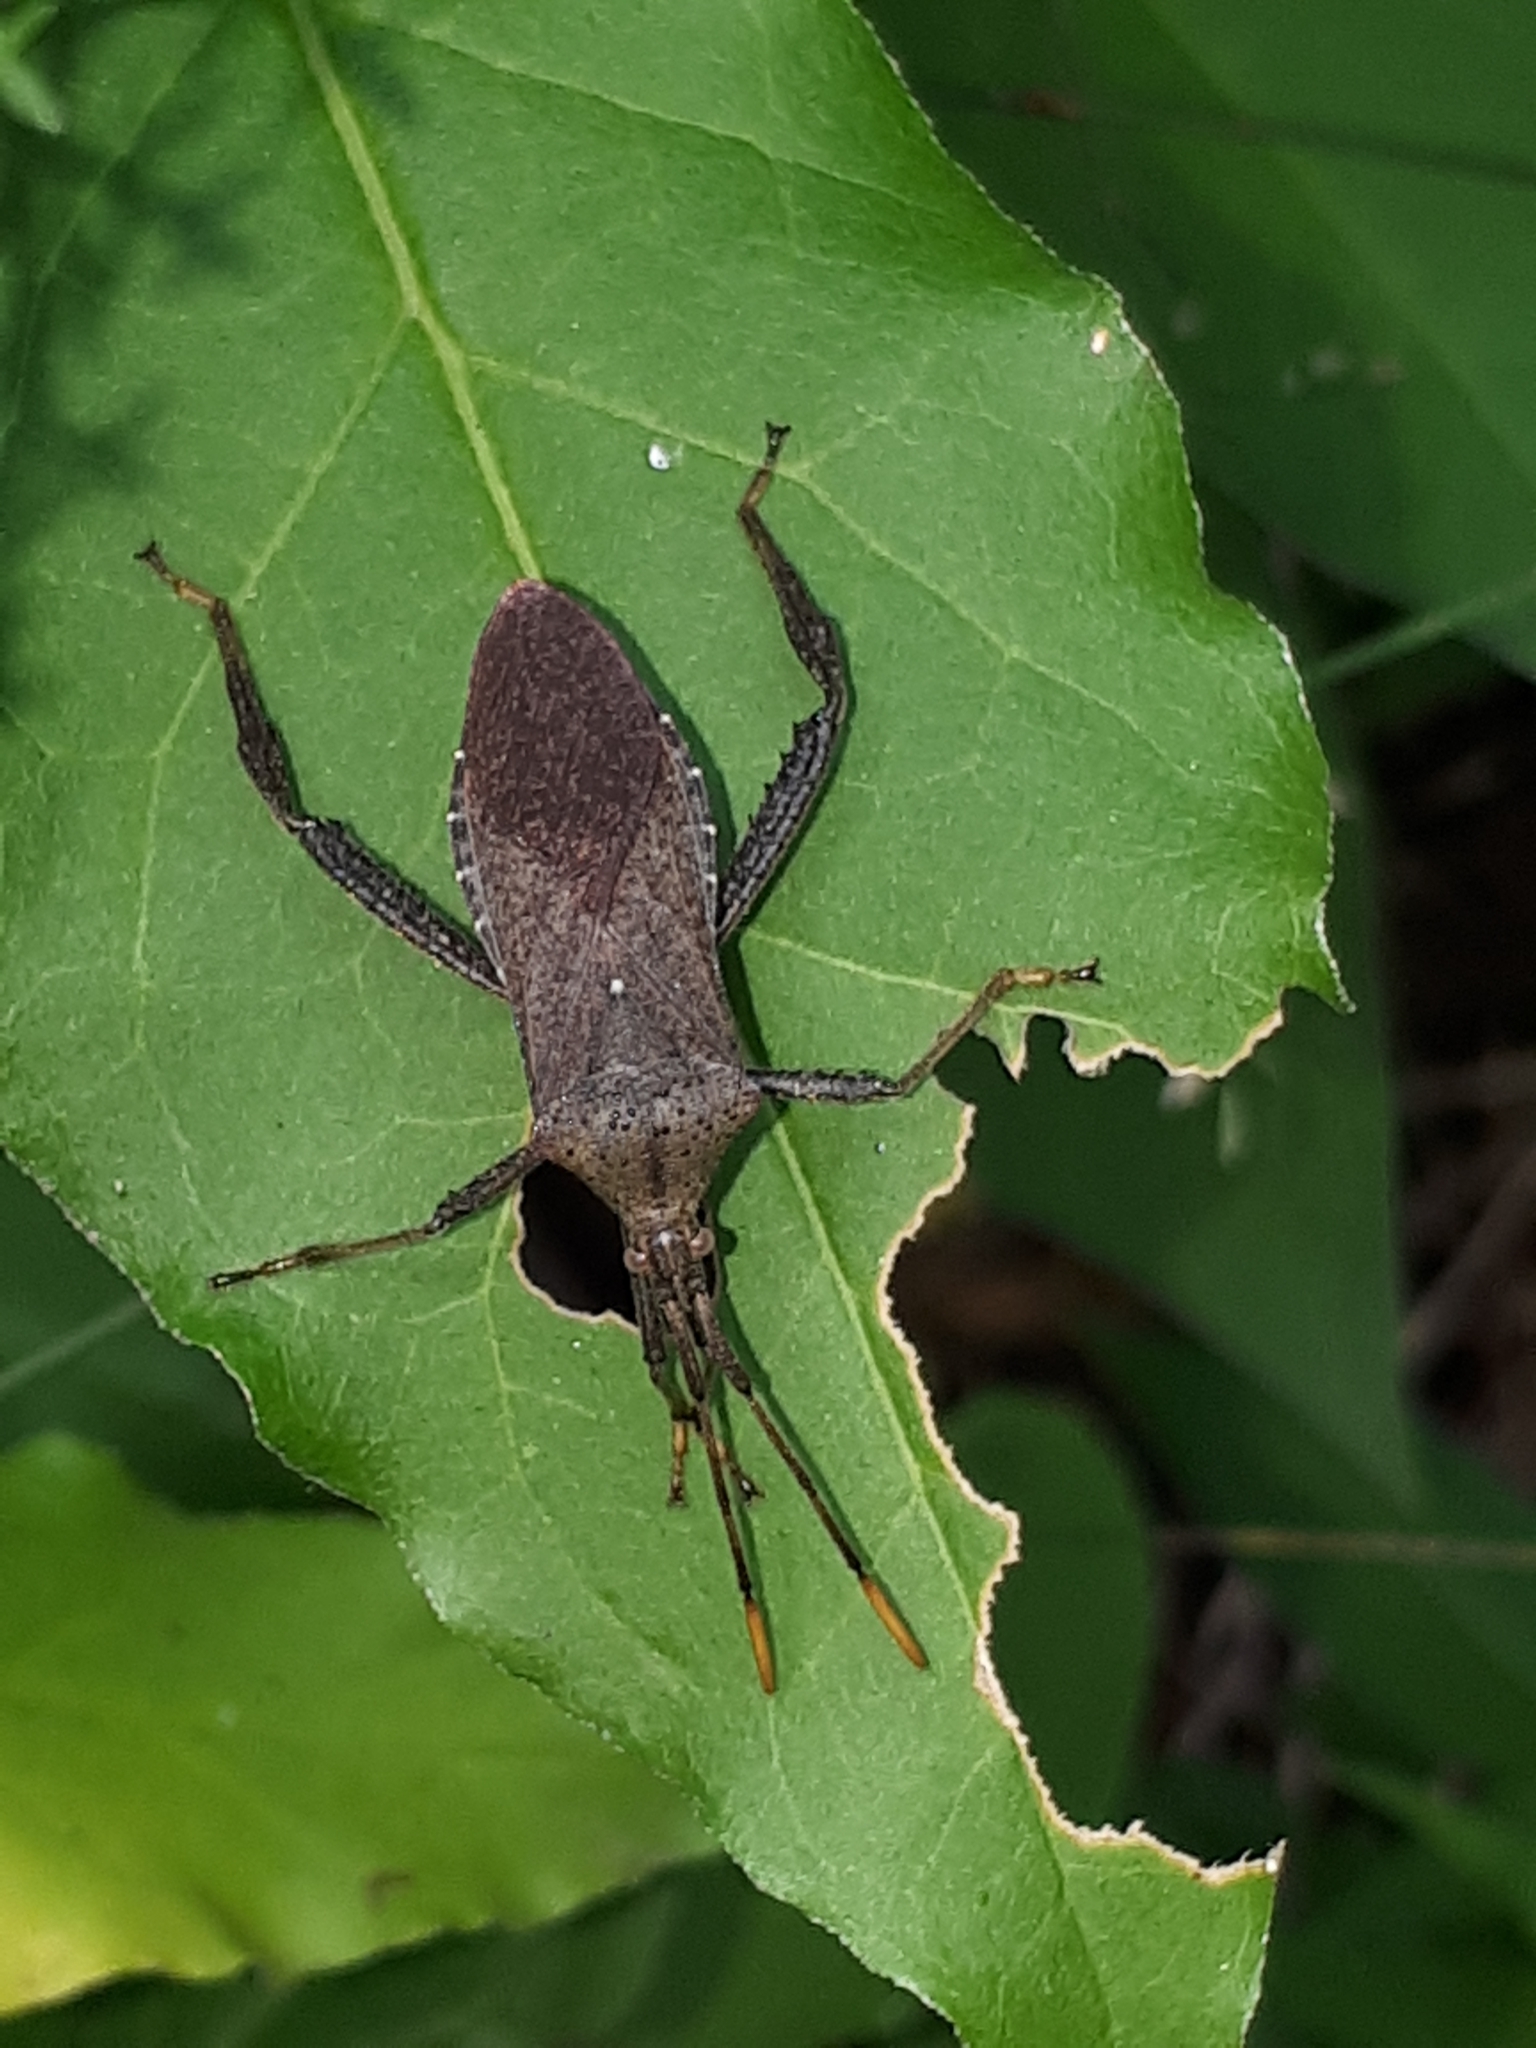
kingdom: Animalia
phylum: Arthropoda
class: Insecta
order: Hemiptera
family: Coreidae
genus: Acanthocephala
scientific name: Acanthocephala terminalis
